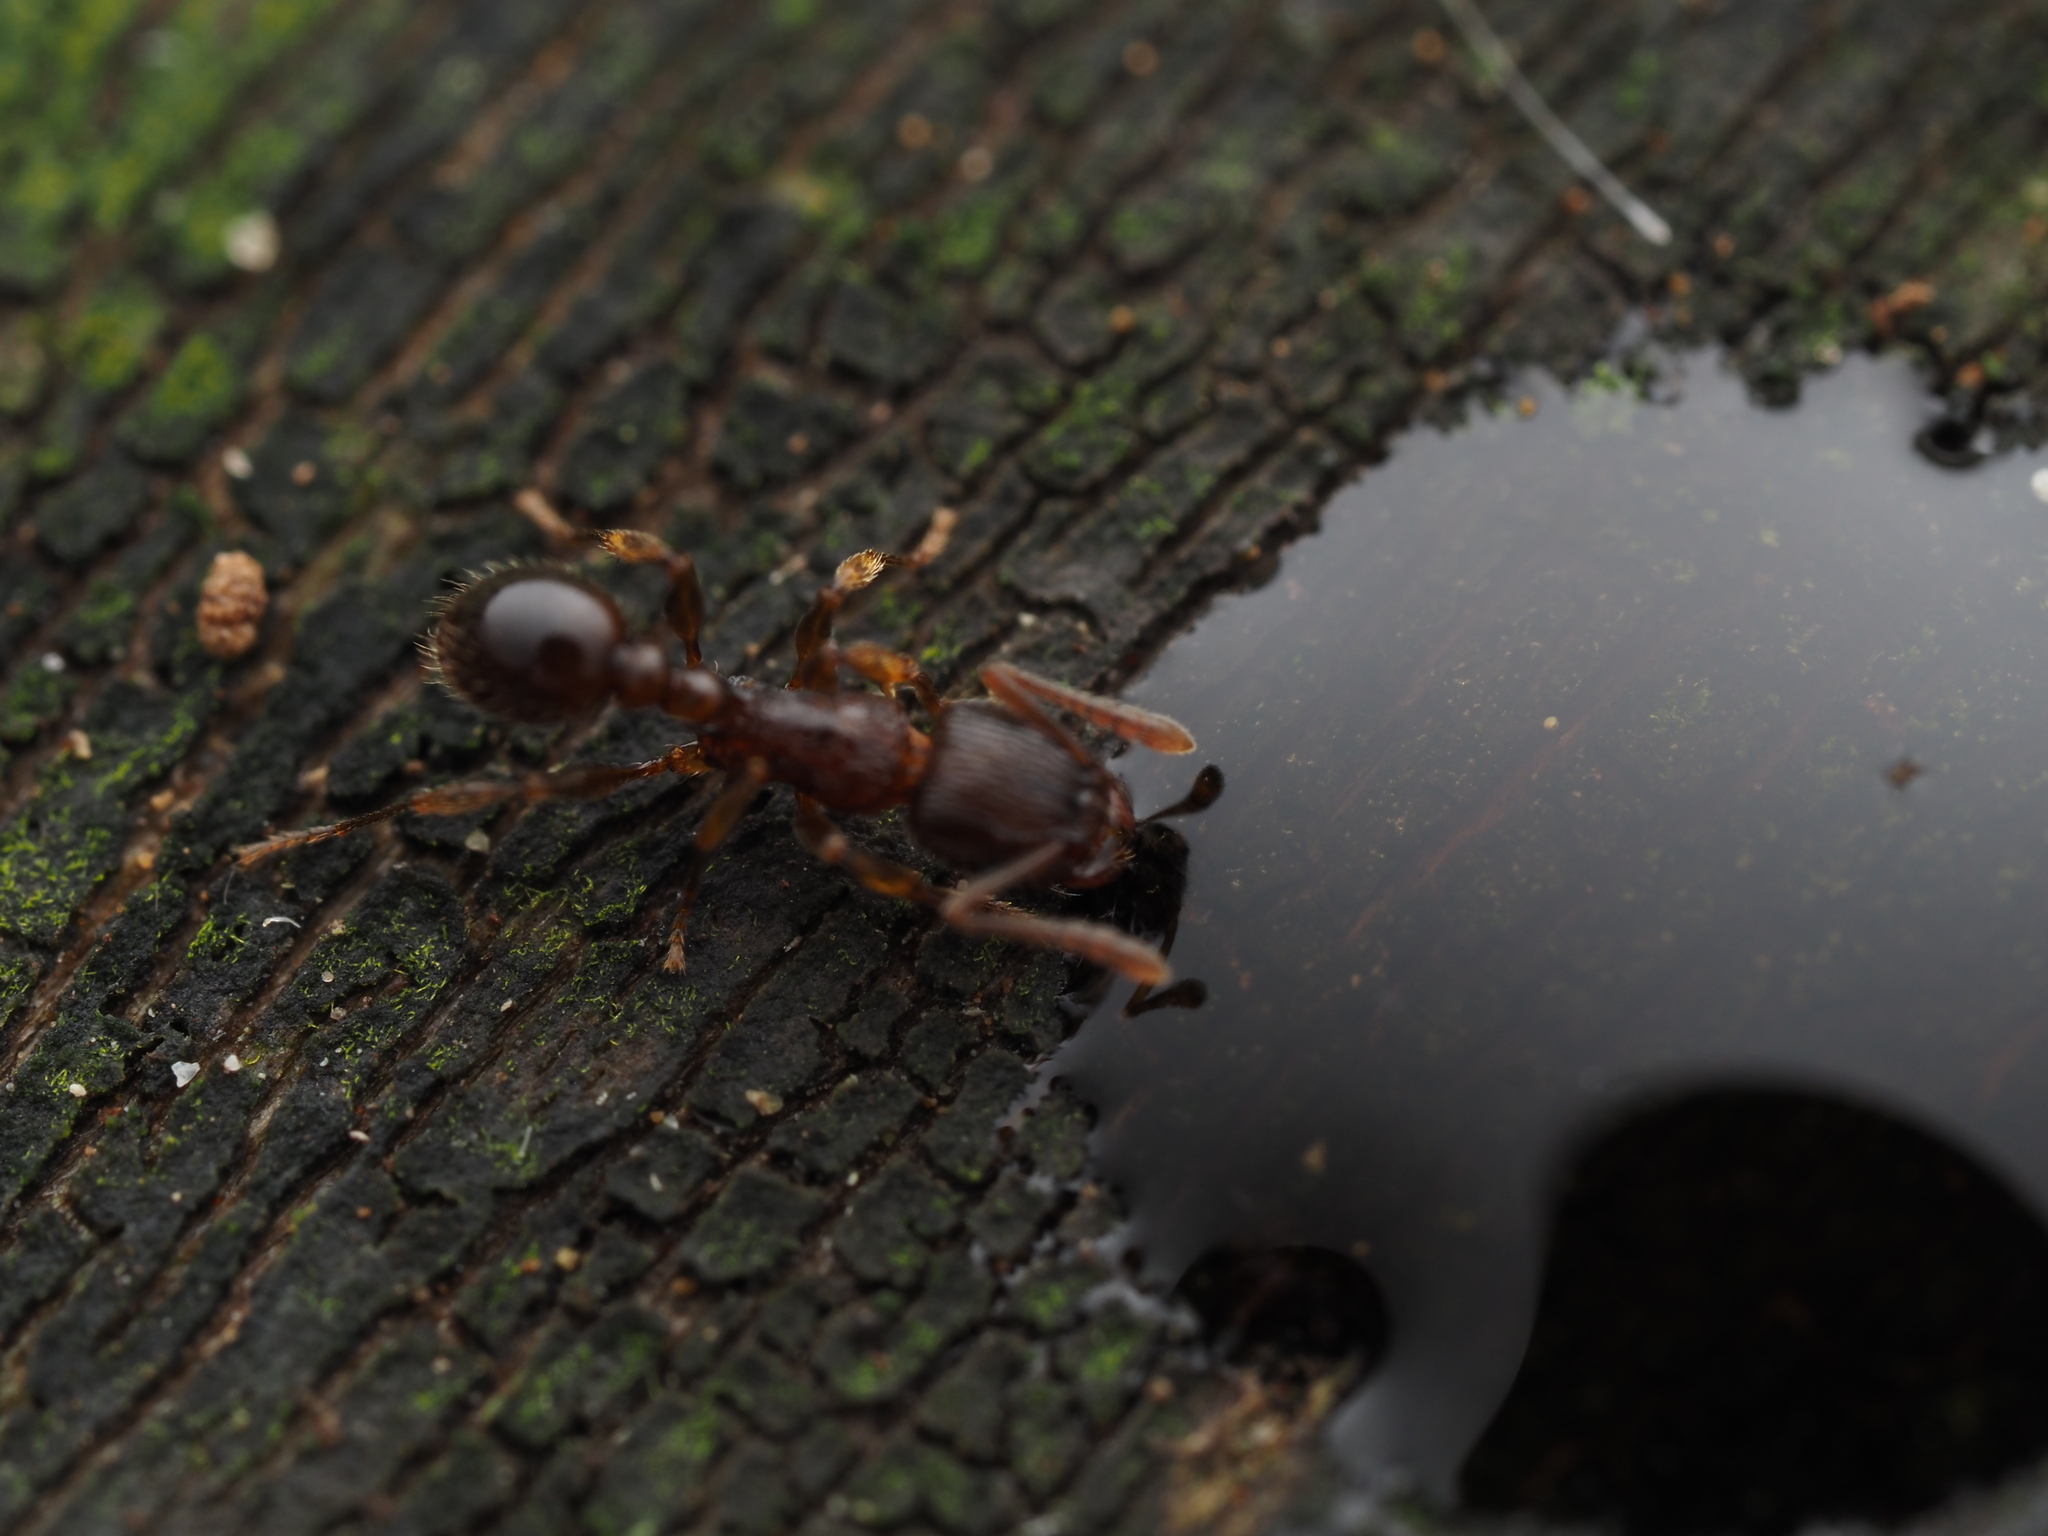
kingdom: Animalia
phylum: Arthropoda
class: Insecta
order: Hymenoptera
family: Formicidae
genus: Tetramorium
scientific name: Tetramorium grassii
